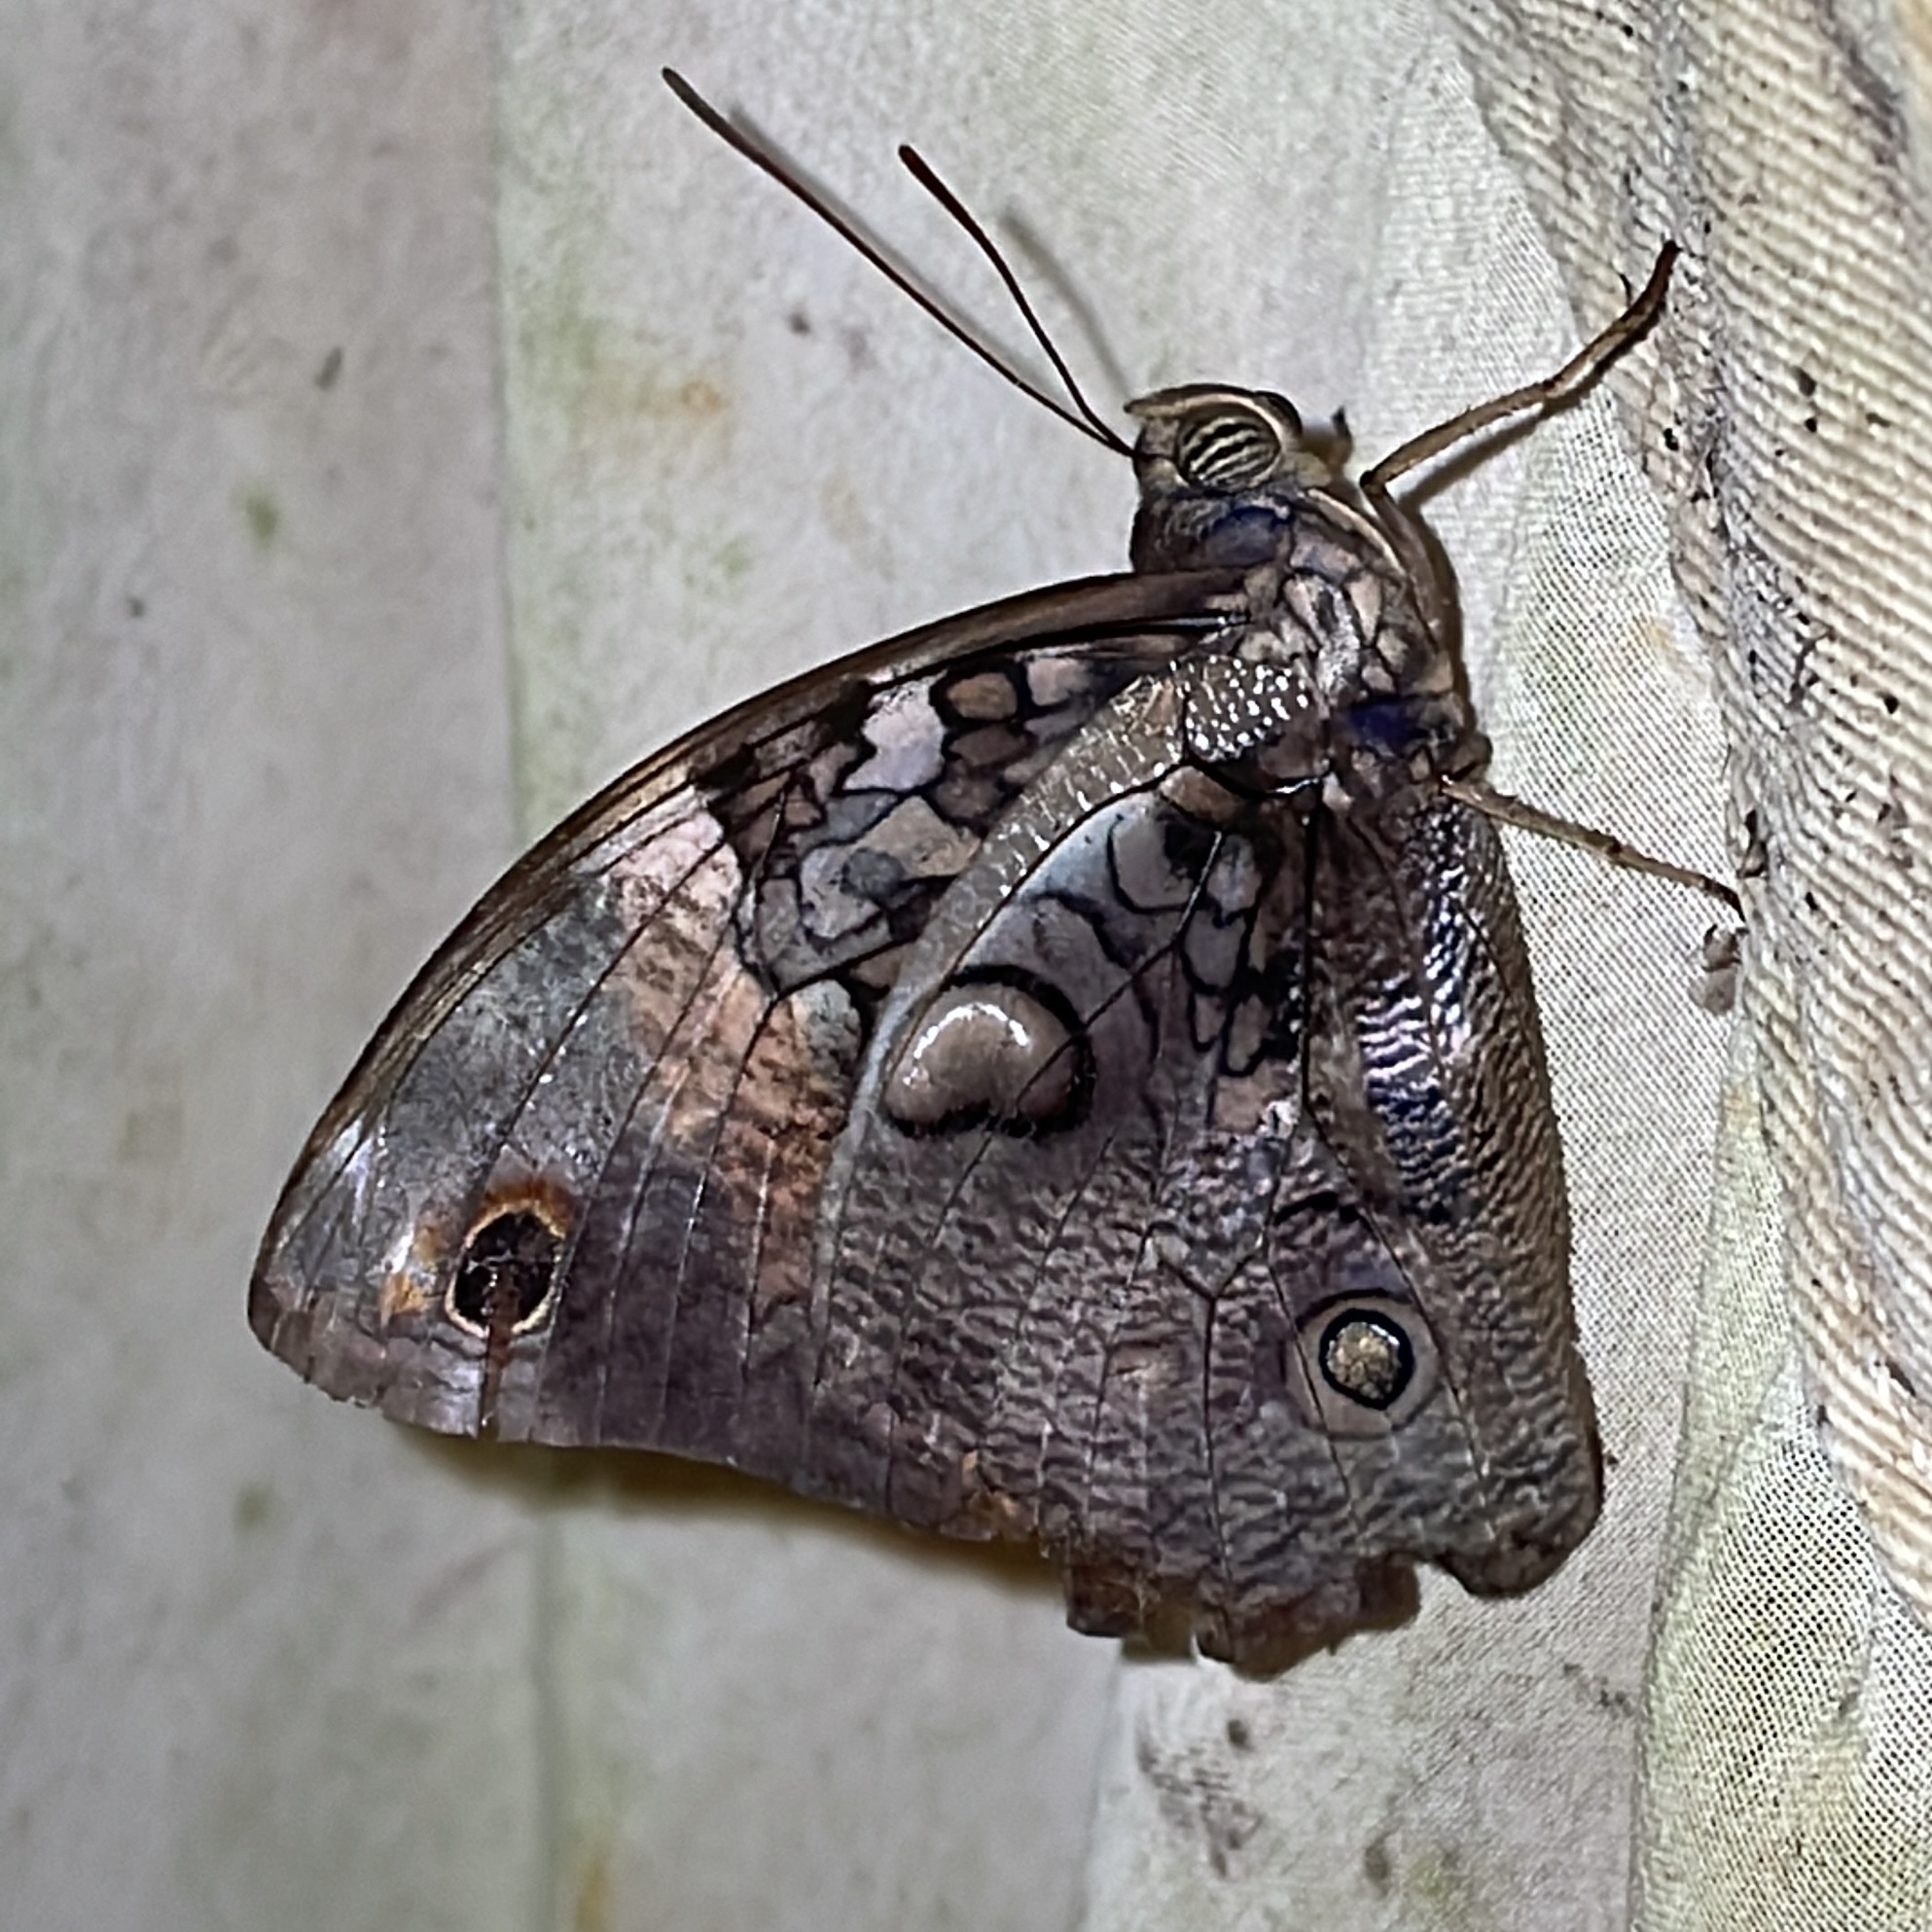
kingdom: Animalia
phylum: Arthropoda
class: Insecta
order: Lepidoptera
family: Nymphalidae
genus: Opsiphanes
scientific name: Opsiphanes cassiae
